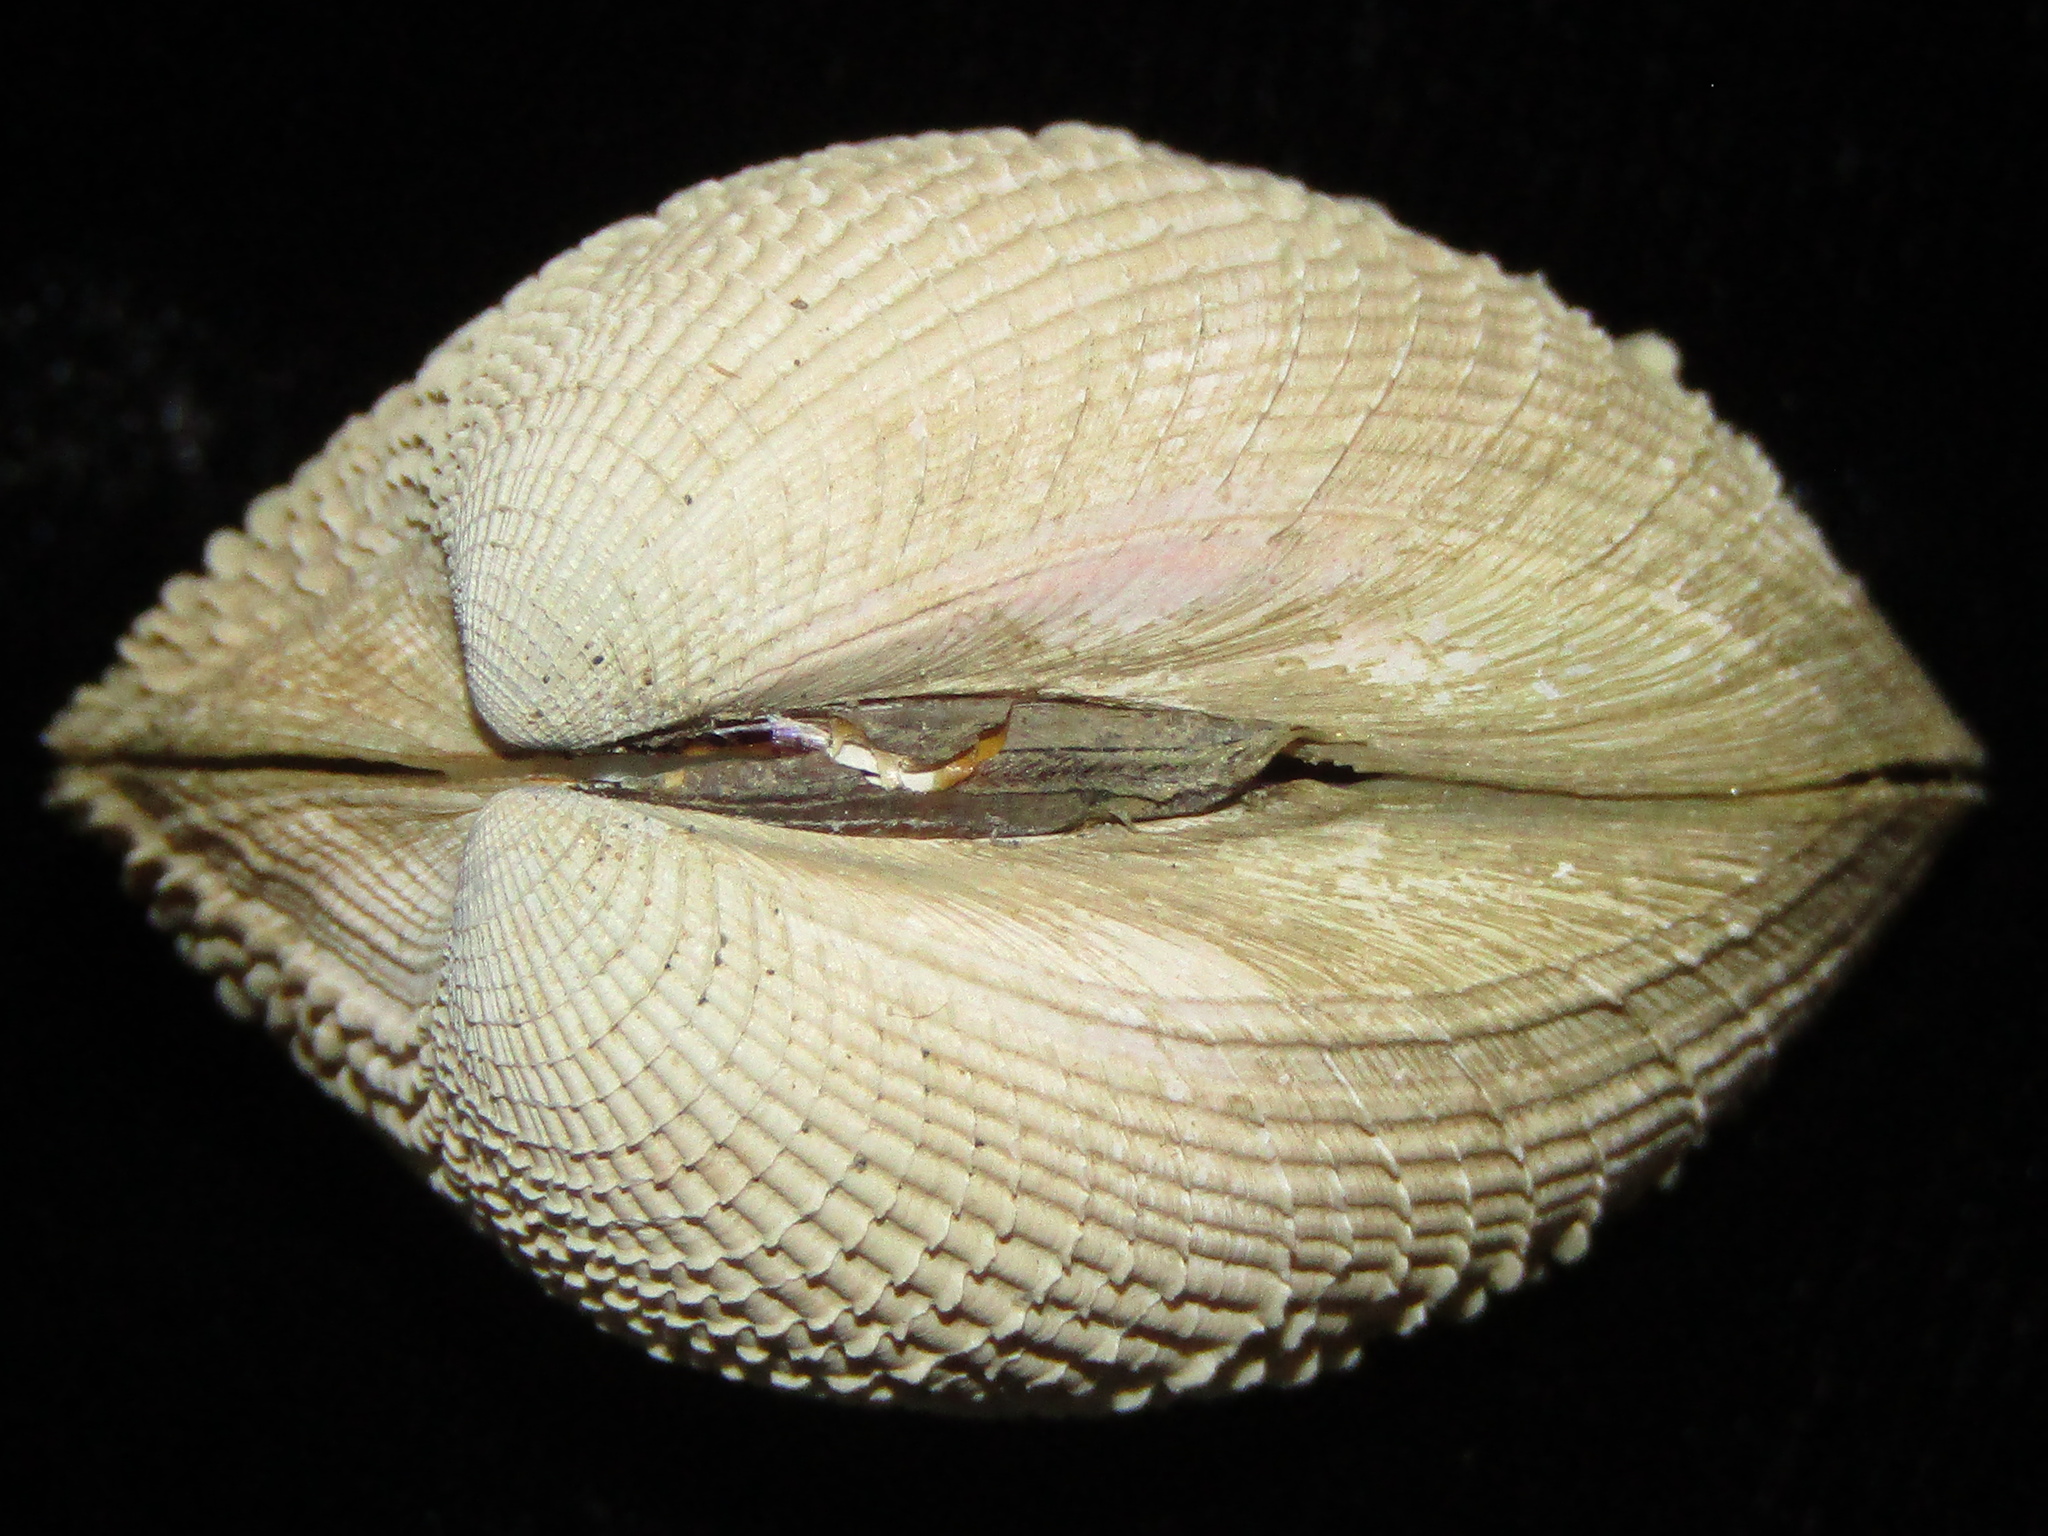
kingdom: Animalia
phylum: Mollusca
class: Bivalvia
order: Venerida
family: Veneridae
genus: Austrovenus
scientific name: Austrovenus stutchburyi
